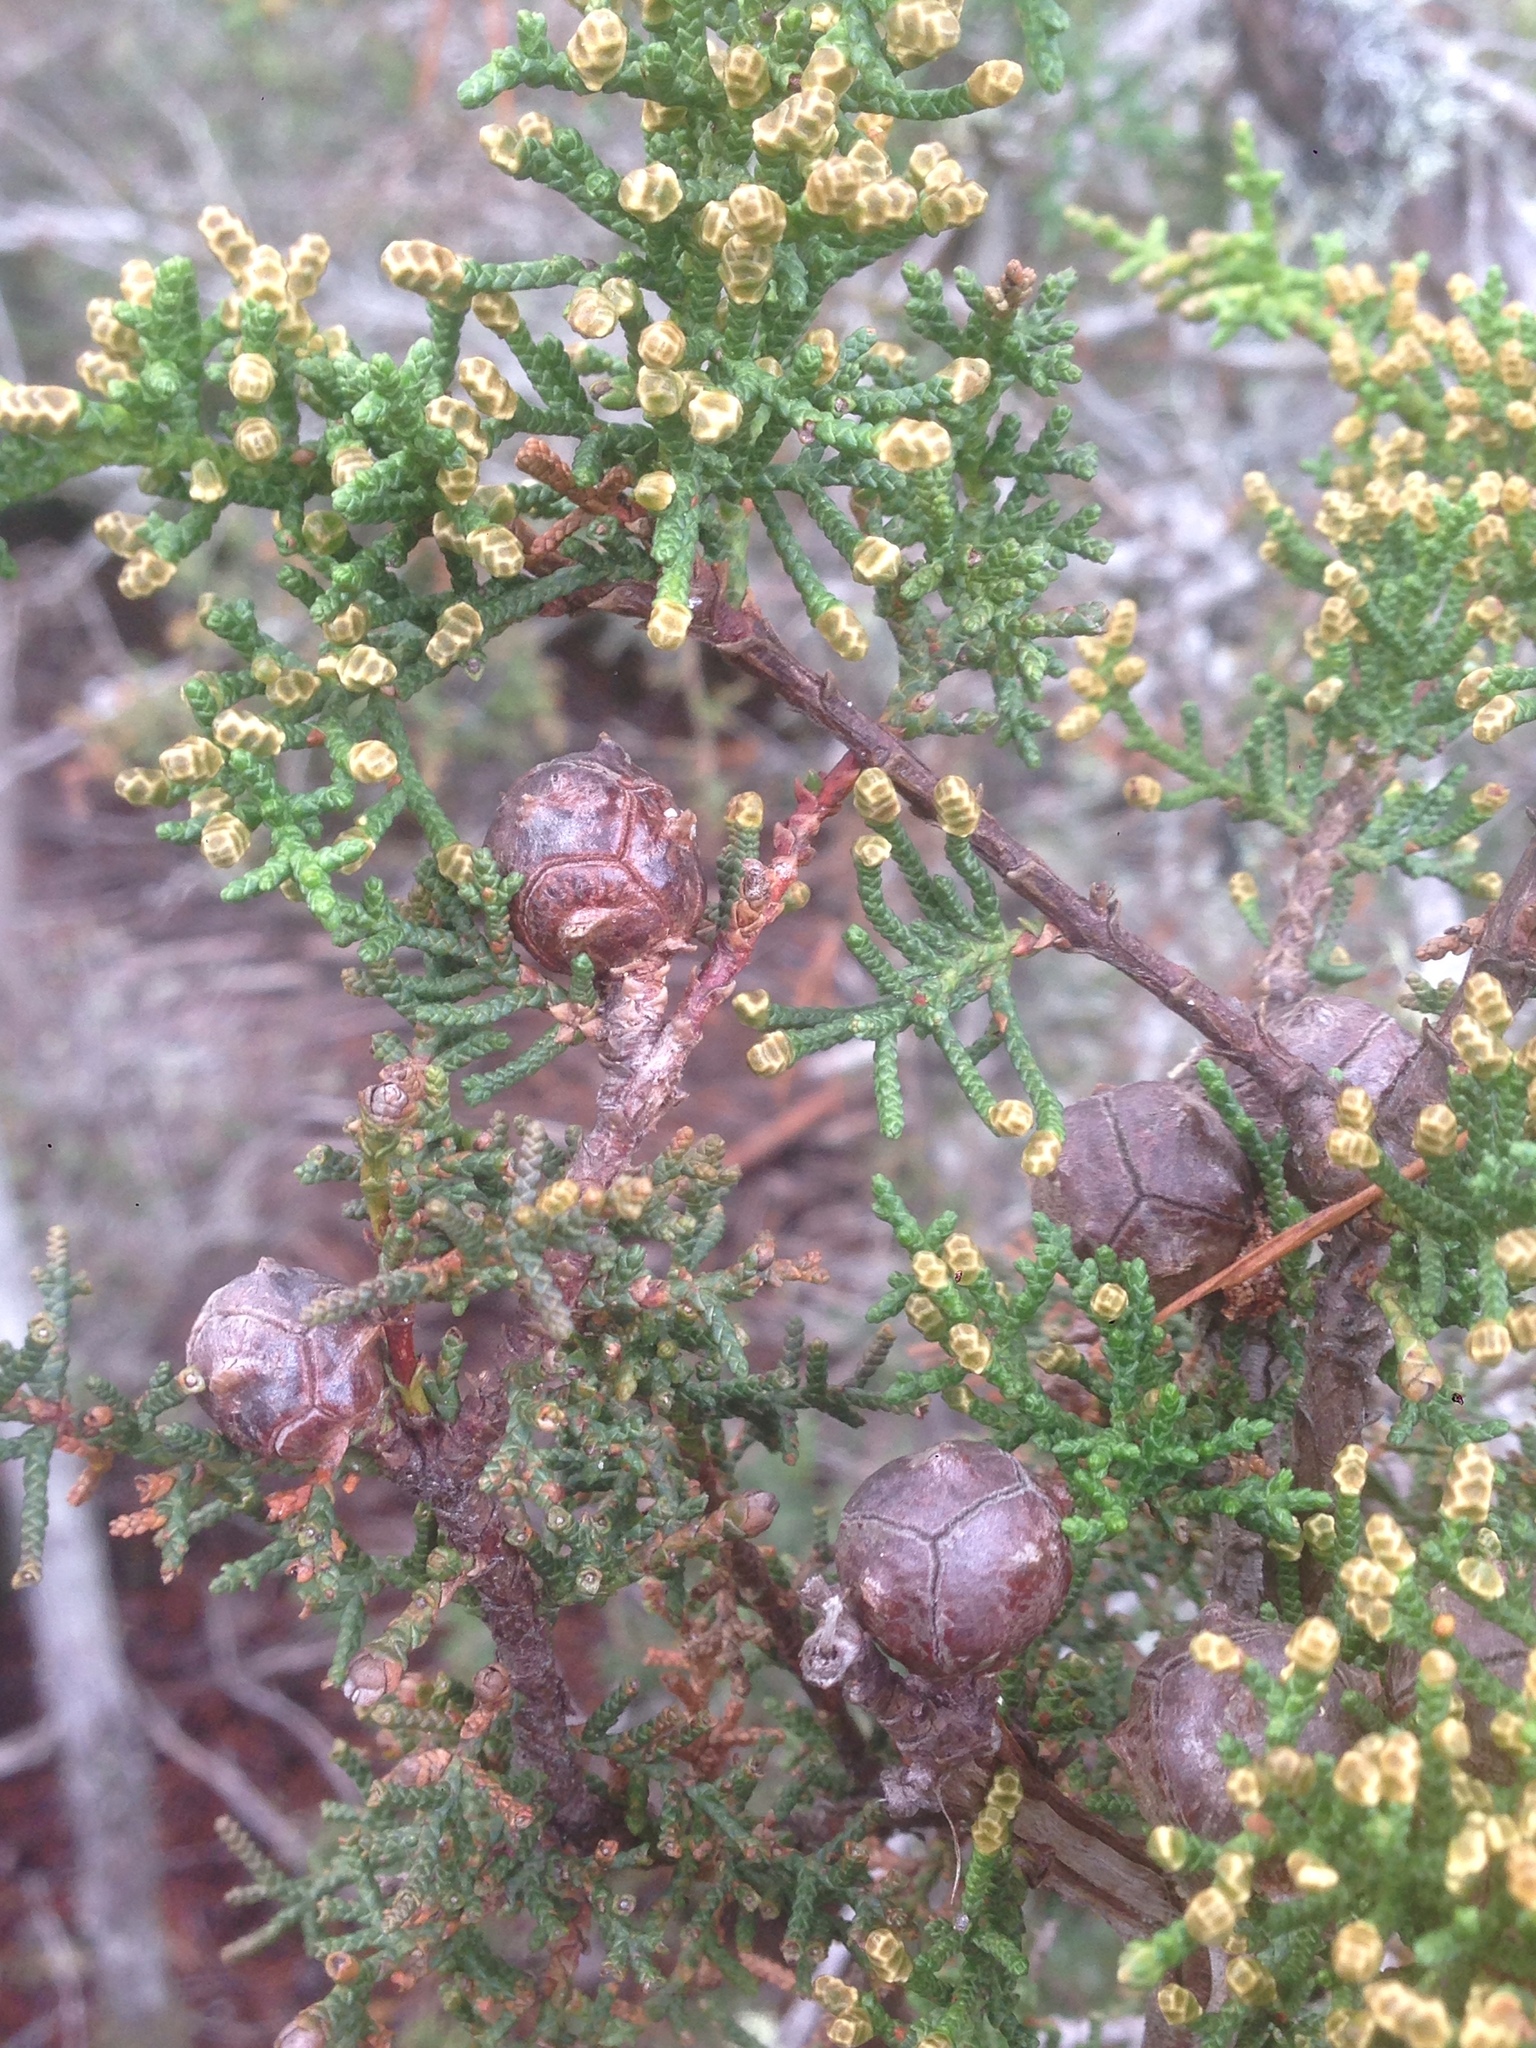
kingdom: Plantae
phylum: Tracheophyta
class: Pinopsida
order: Pinales
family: Cupressaceae
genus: Cupressus
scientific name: Cupressus goveniana
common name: Gowen cypress
